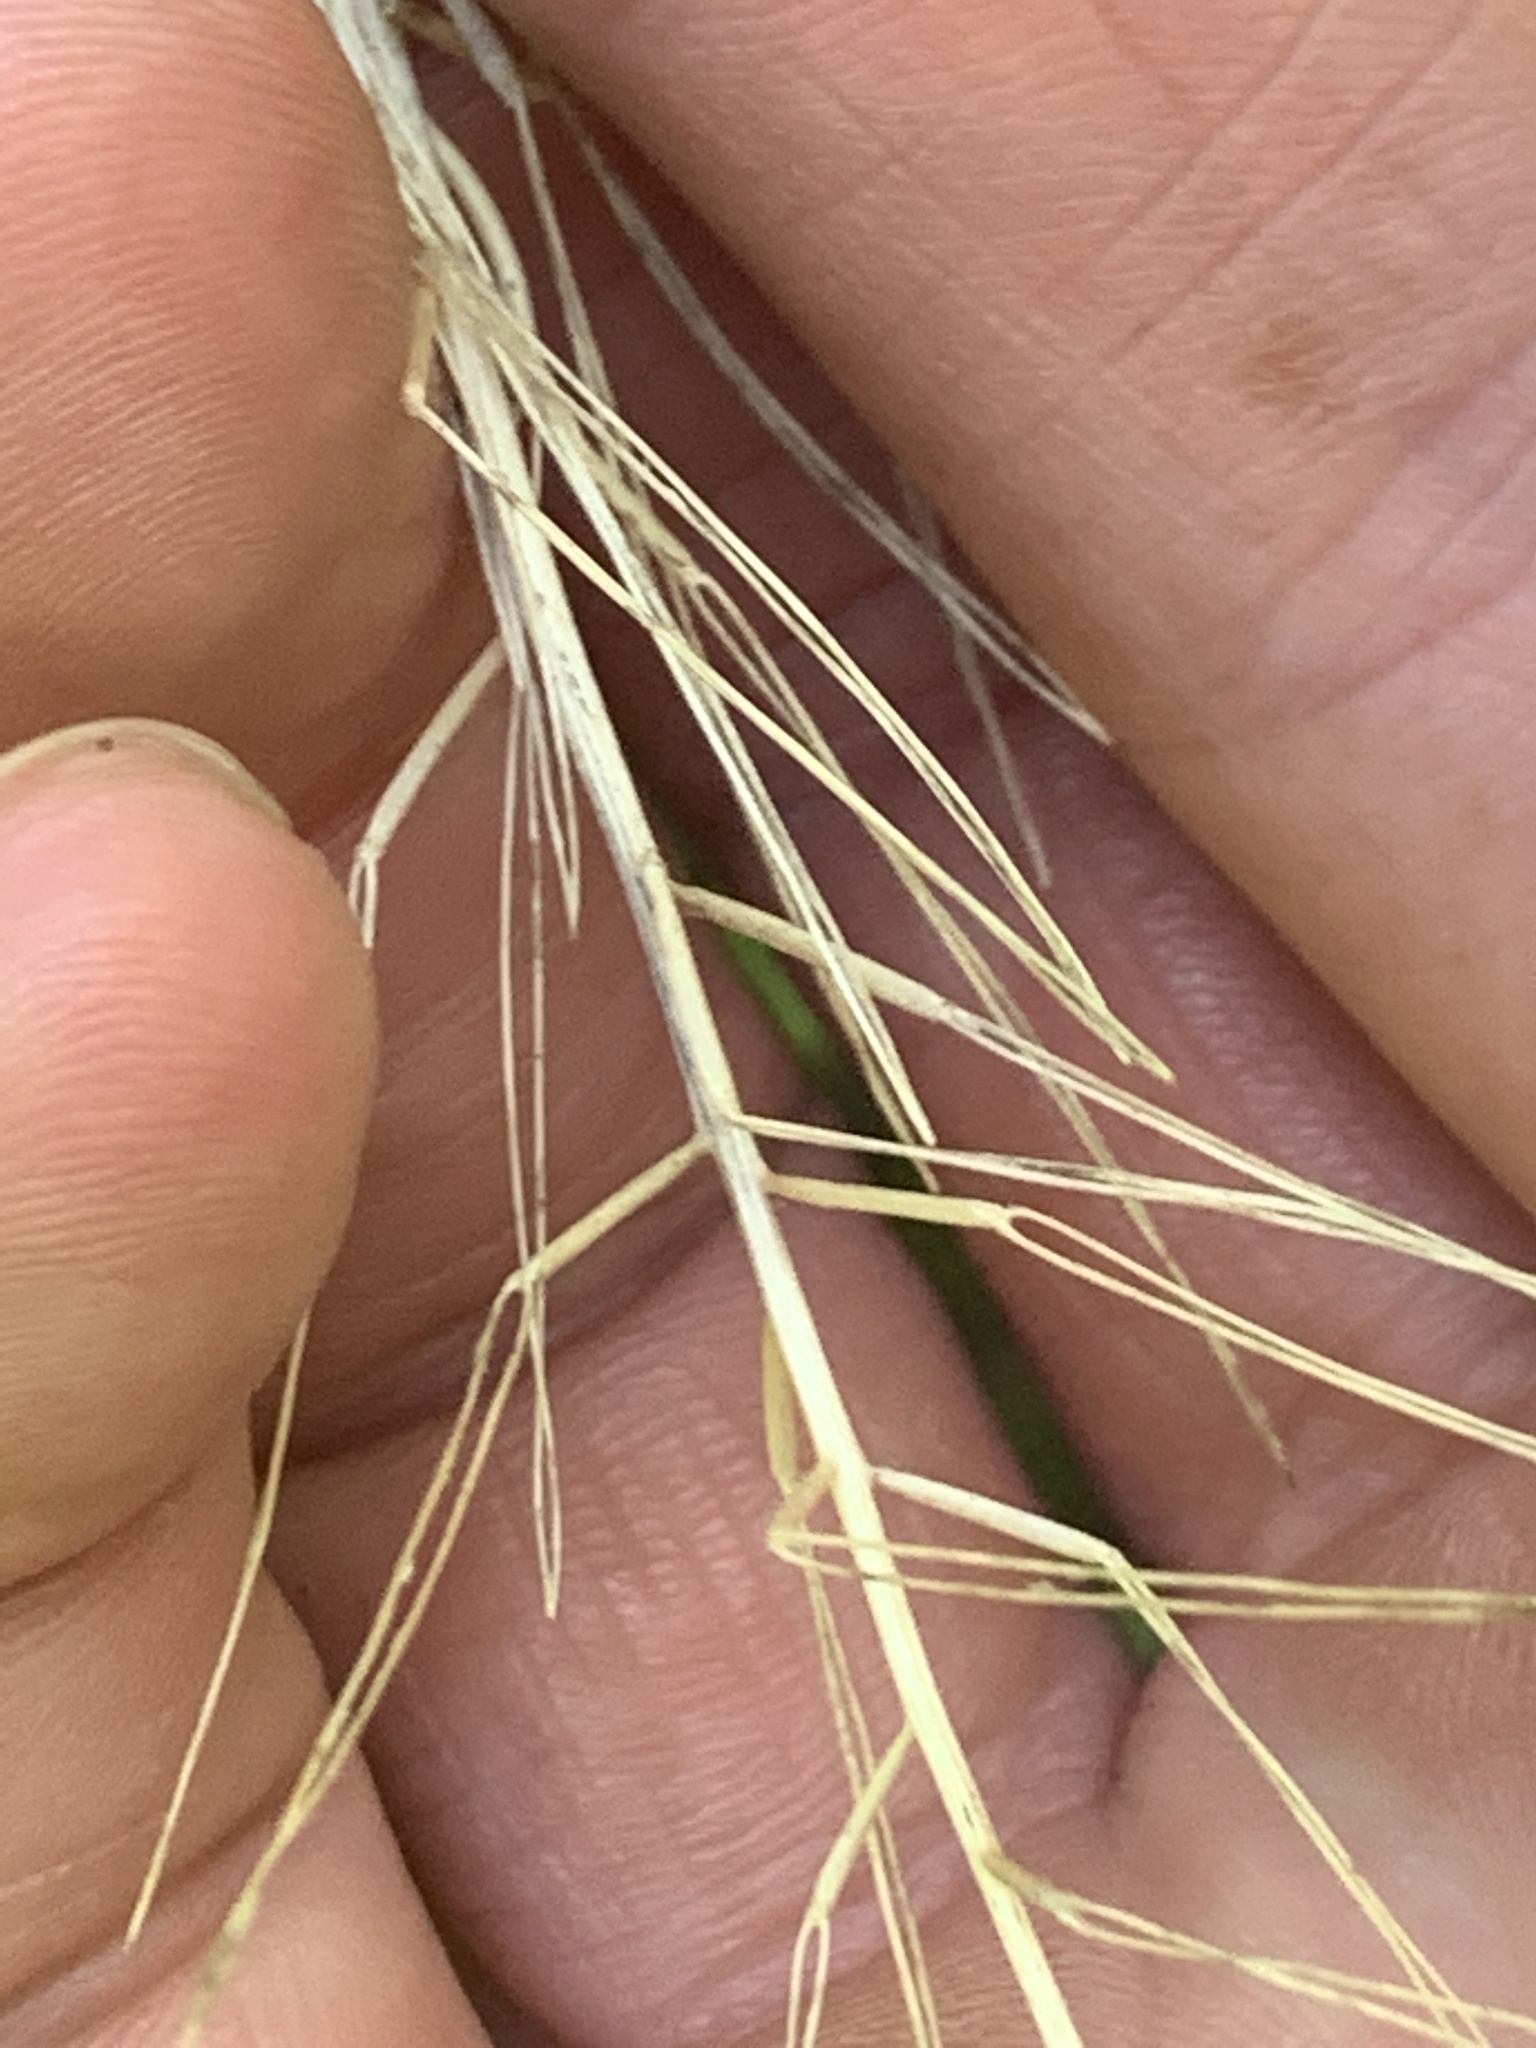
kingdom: Plantae
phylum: Tracheophyta
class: Magnoliopsida
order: Brassicales
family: Brassicaceae
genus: Cardamine
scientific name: Cardamine impatiens
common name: Narrow-leaved bitter-cress
